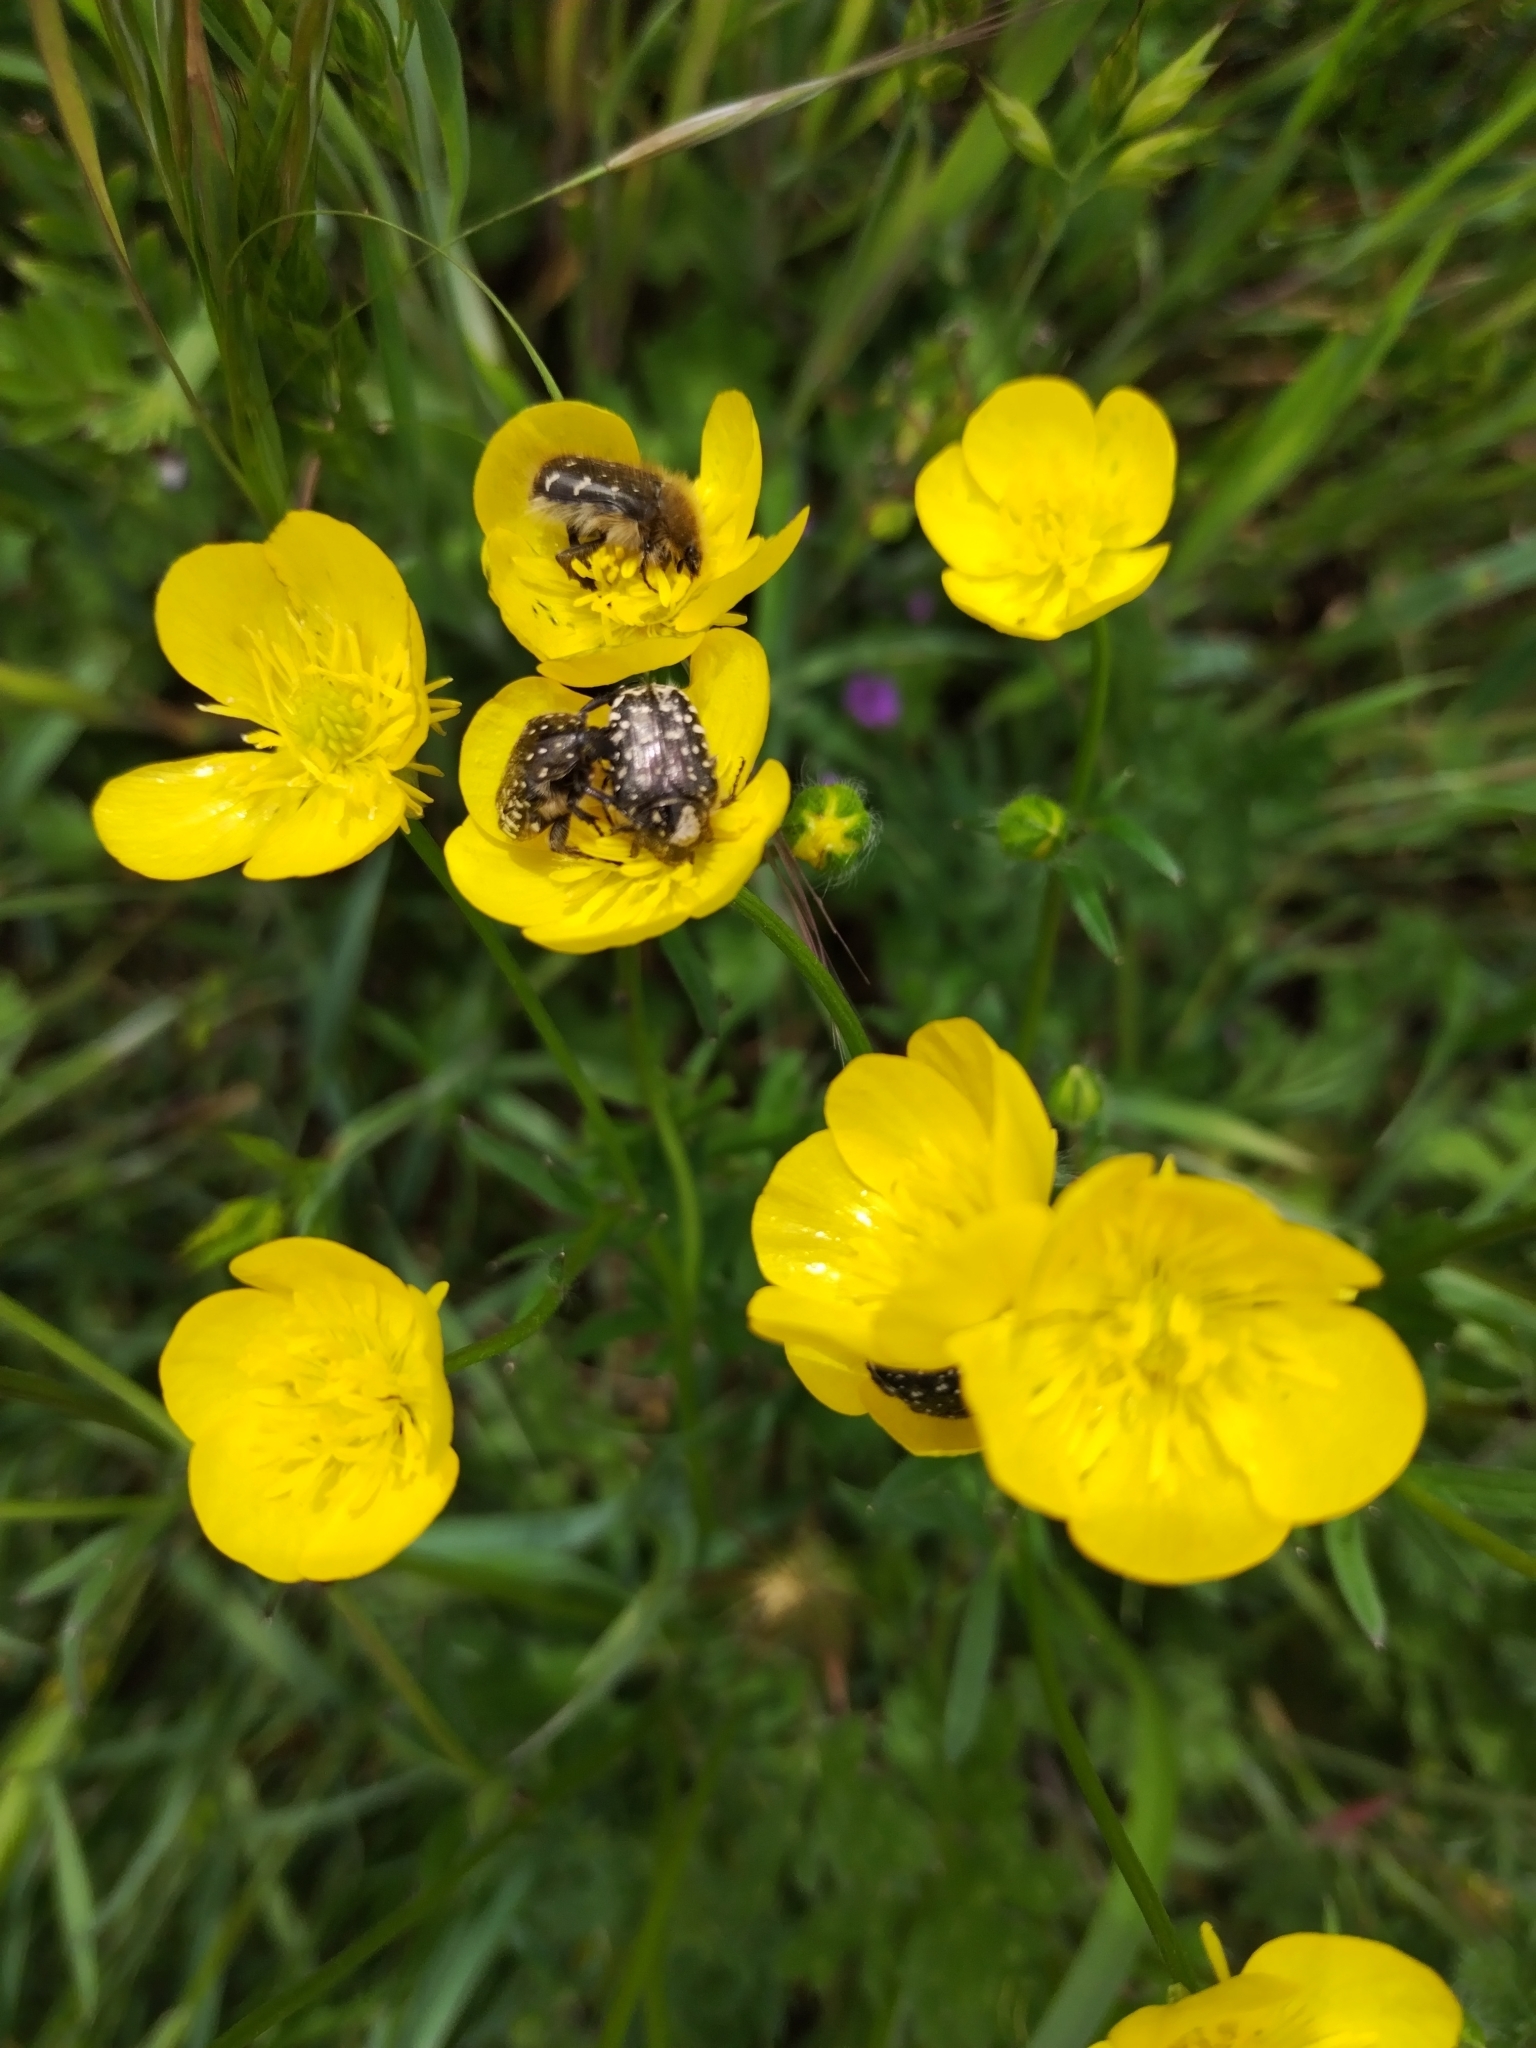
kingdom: Animalia
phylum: Arthropoda
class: Insecta
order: Coleoptera
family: Scarabaeidae
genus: Oxythyrea
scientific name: Oxythyrea funesta
